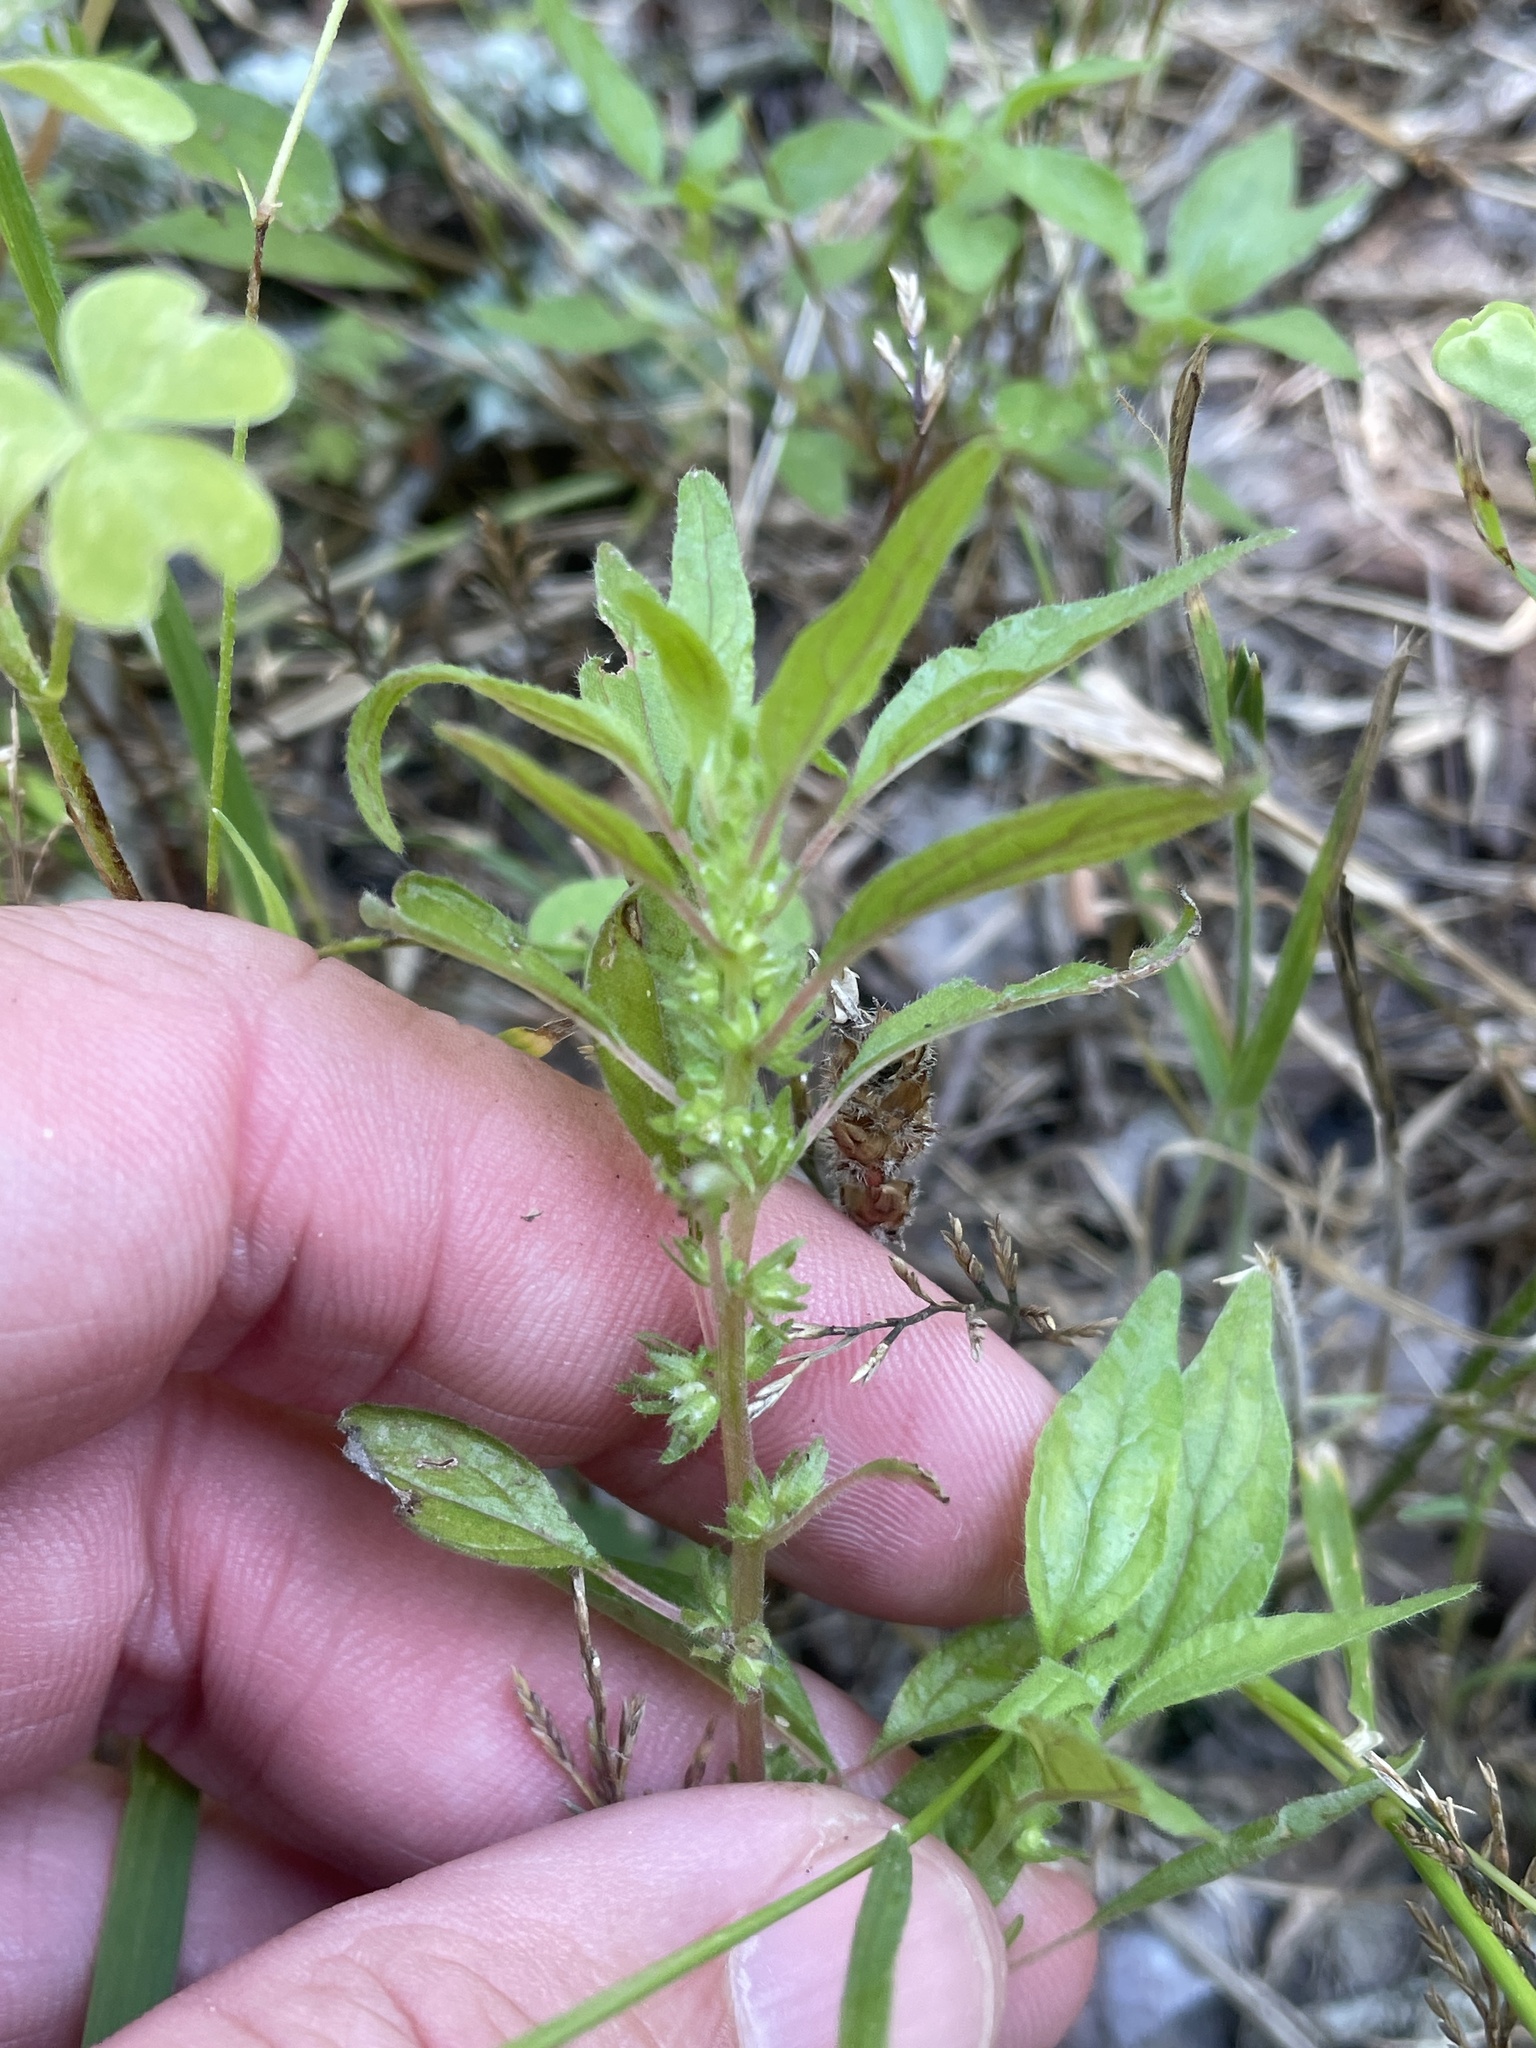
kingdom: Plantae
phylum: Tracheophyta
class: Magnoliopsida
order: Rosales
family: Urticaceae
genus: Parietaria
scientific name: Parietaria pensylvanica
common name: Pennsylvania pellitory
